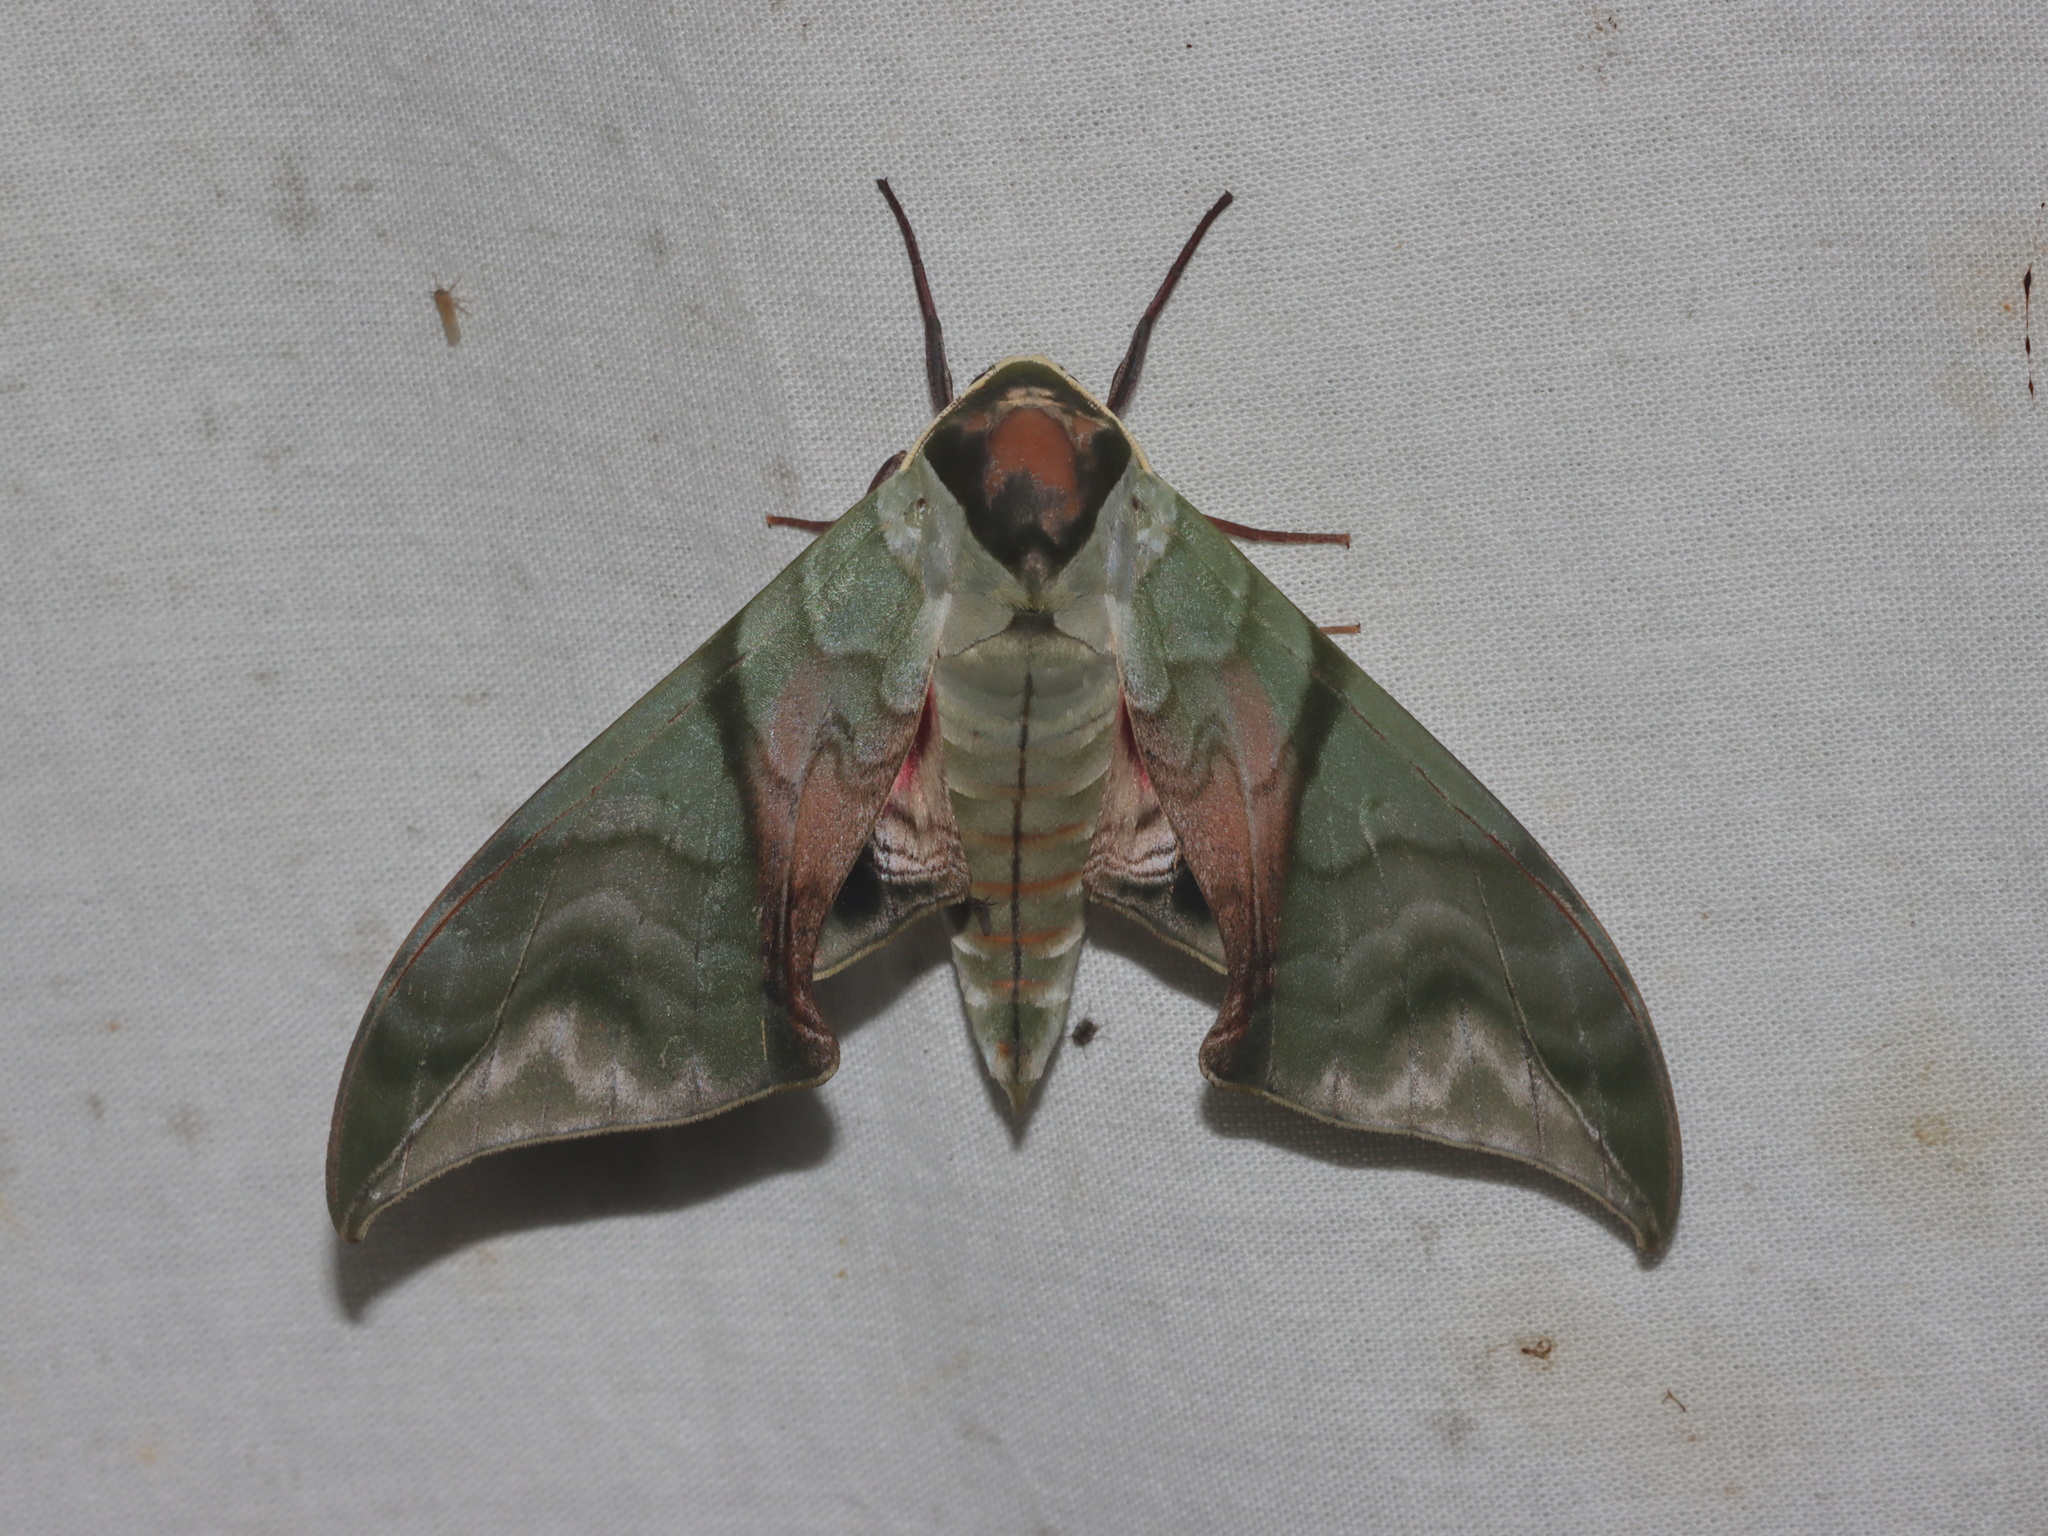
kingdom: Animalia
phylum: Arthropoda
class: Insecta
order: Lepidoptera
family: Sphingidae
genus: Callambulyx
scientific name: Callambulyx amanda
